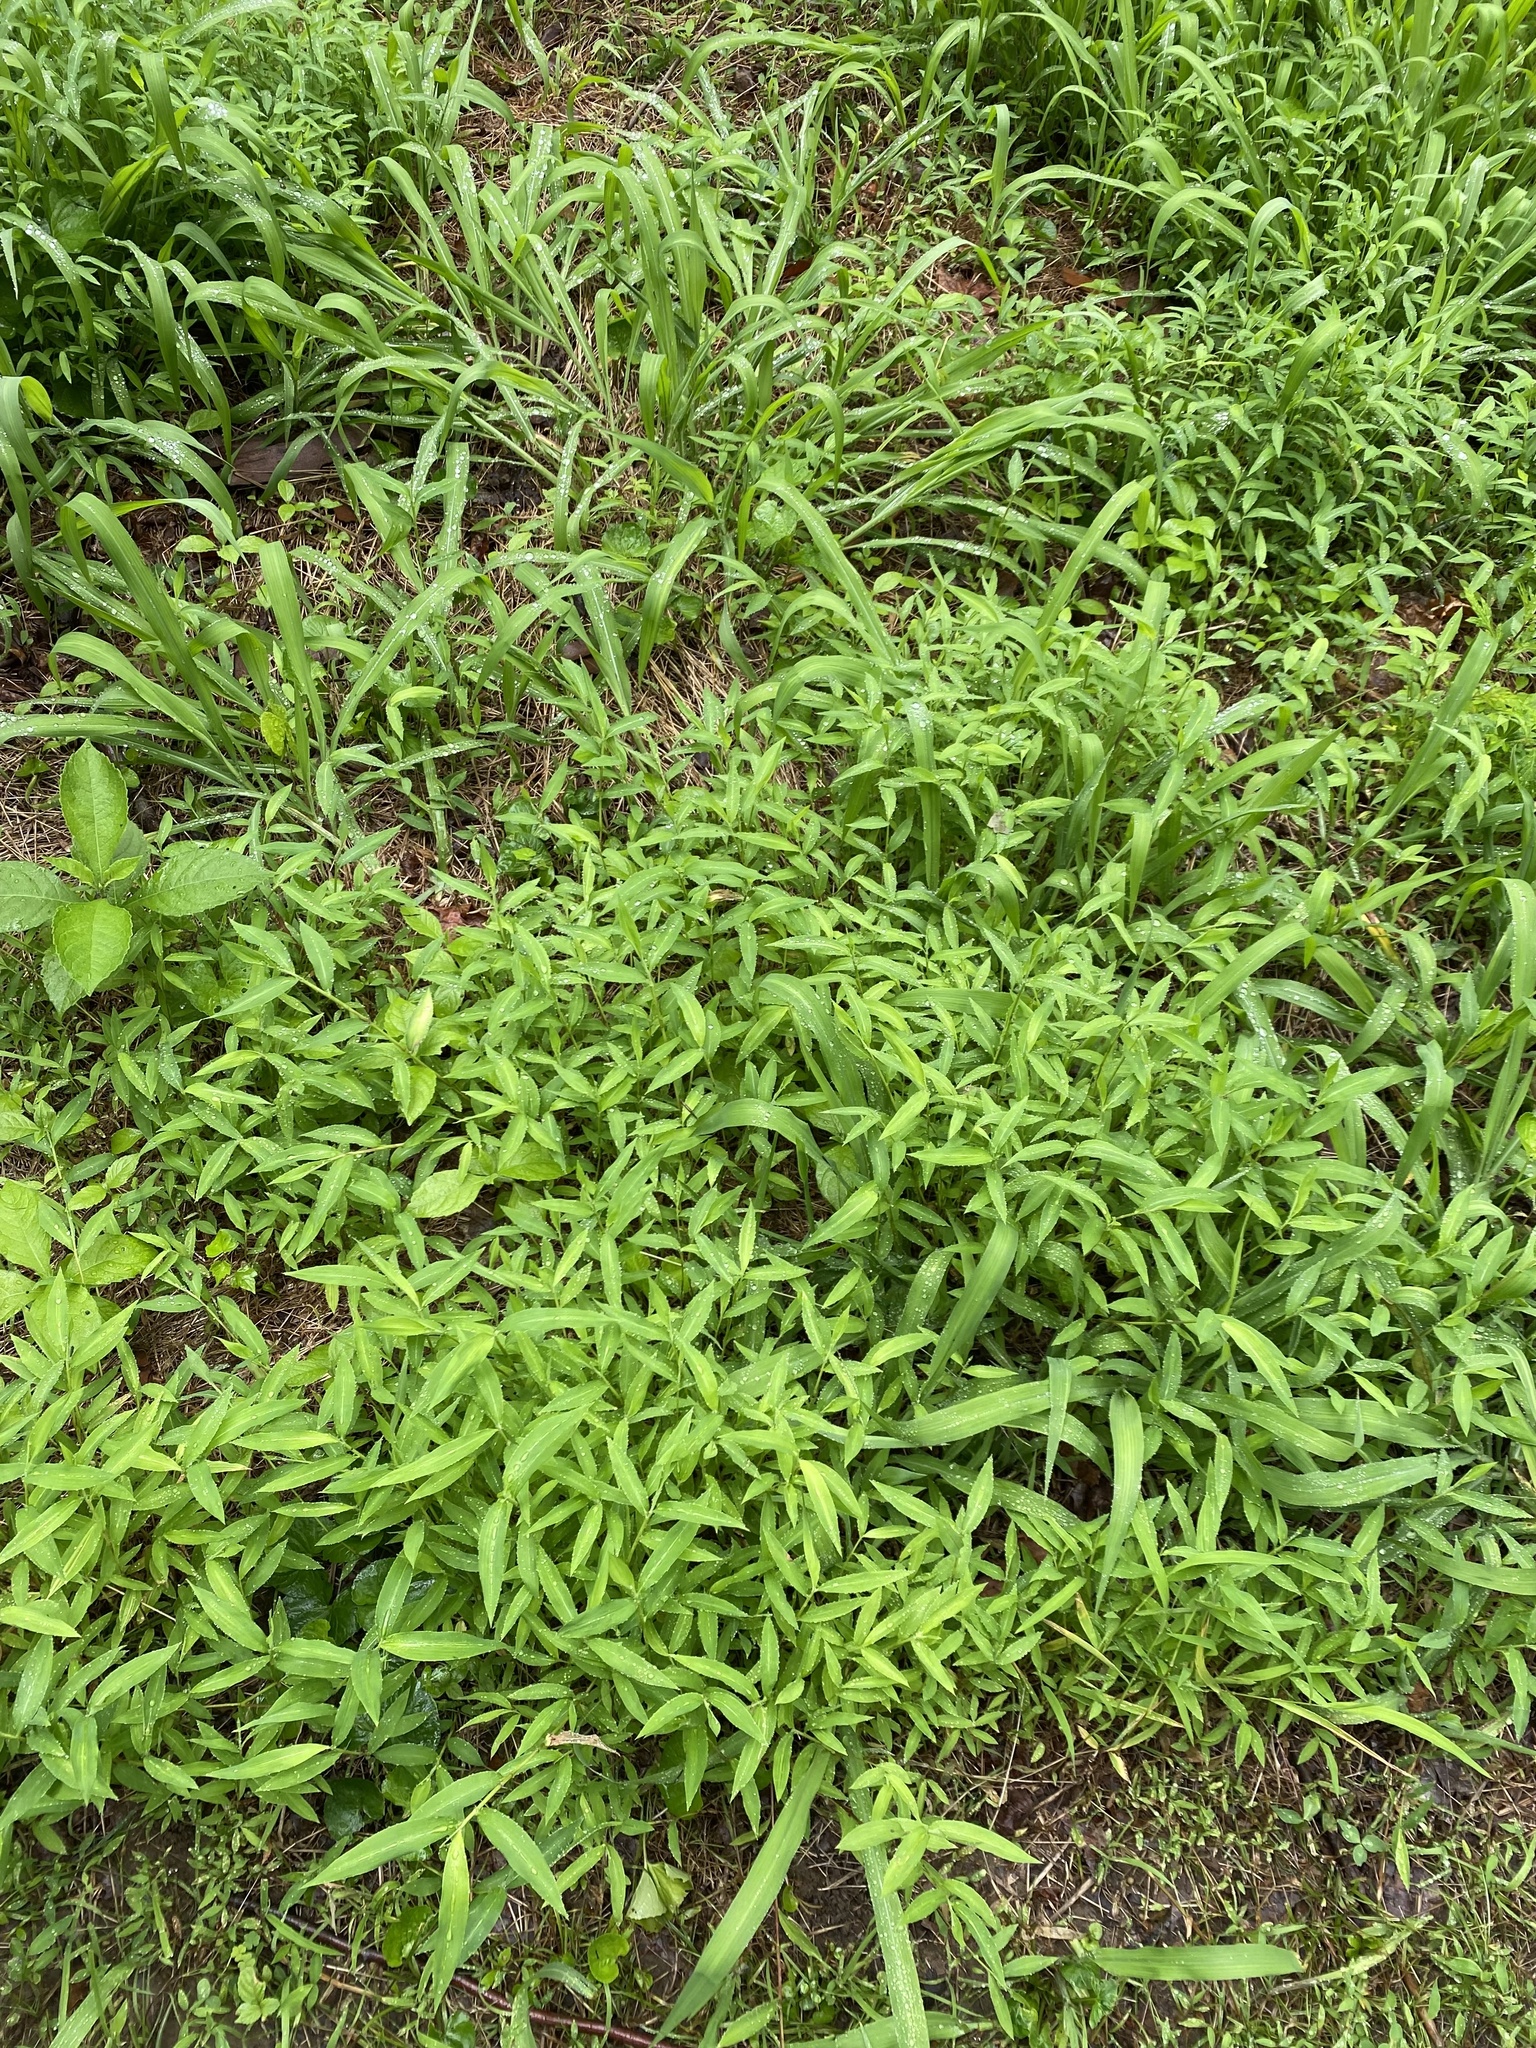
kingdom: Plantae
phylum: Tracheophyta
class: Liliopsida
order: Poales
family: Poaceae
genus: Microstegium
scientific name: Microstegium vimineum
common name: Japanese stiltgrass
